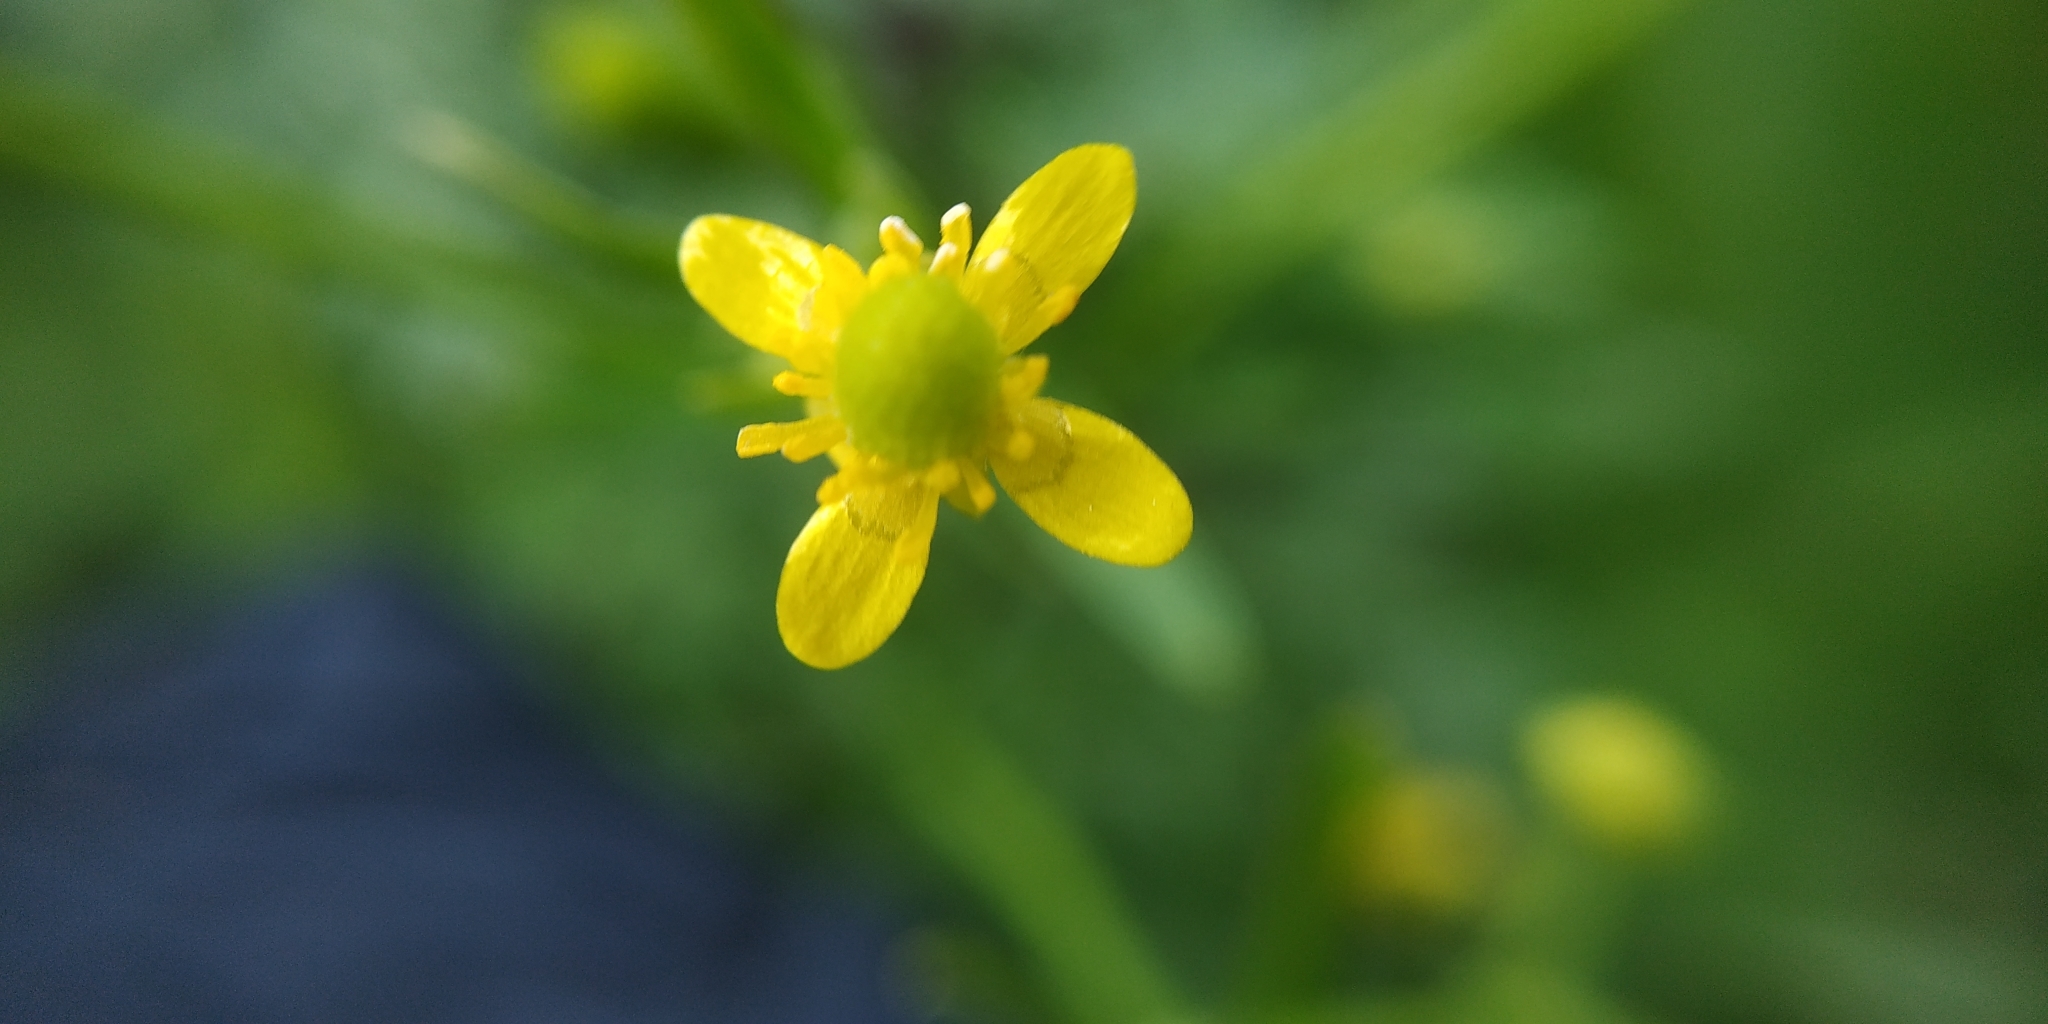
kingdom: Plantae
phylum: Tracheophyta
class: Magnoliopsida
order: Ranunculales
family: Ranunculaceae
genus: Ranunculus
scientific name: Ranunculus sceleratus
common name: Celery-leaved buttercup
